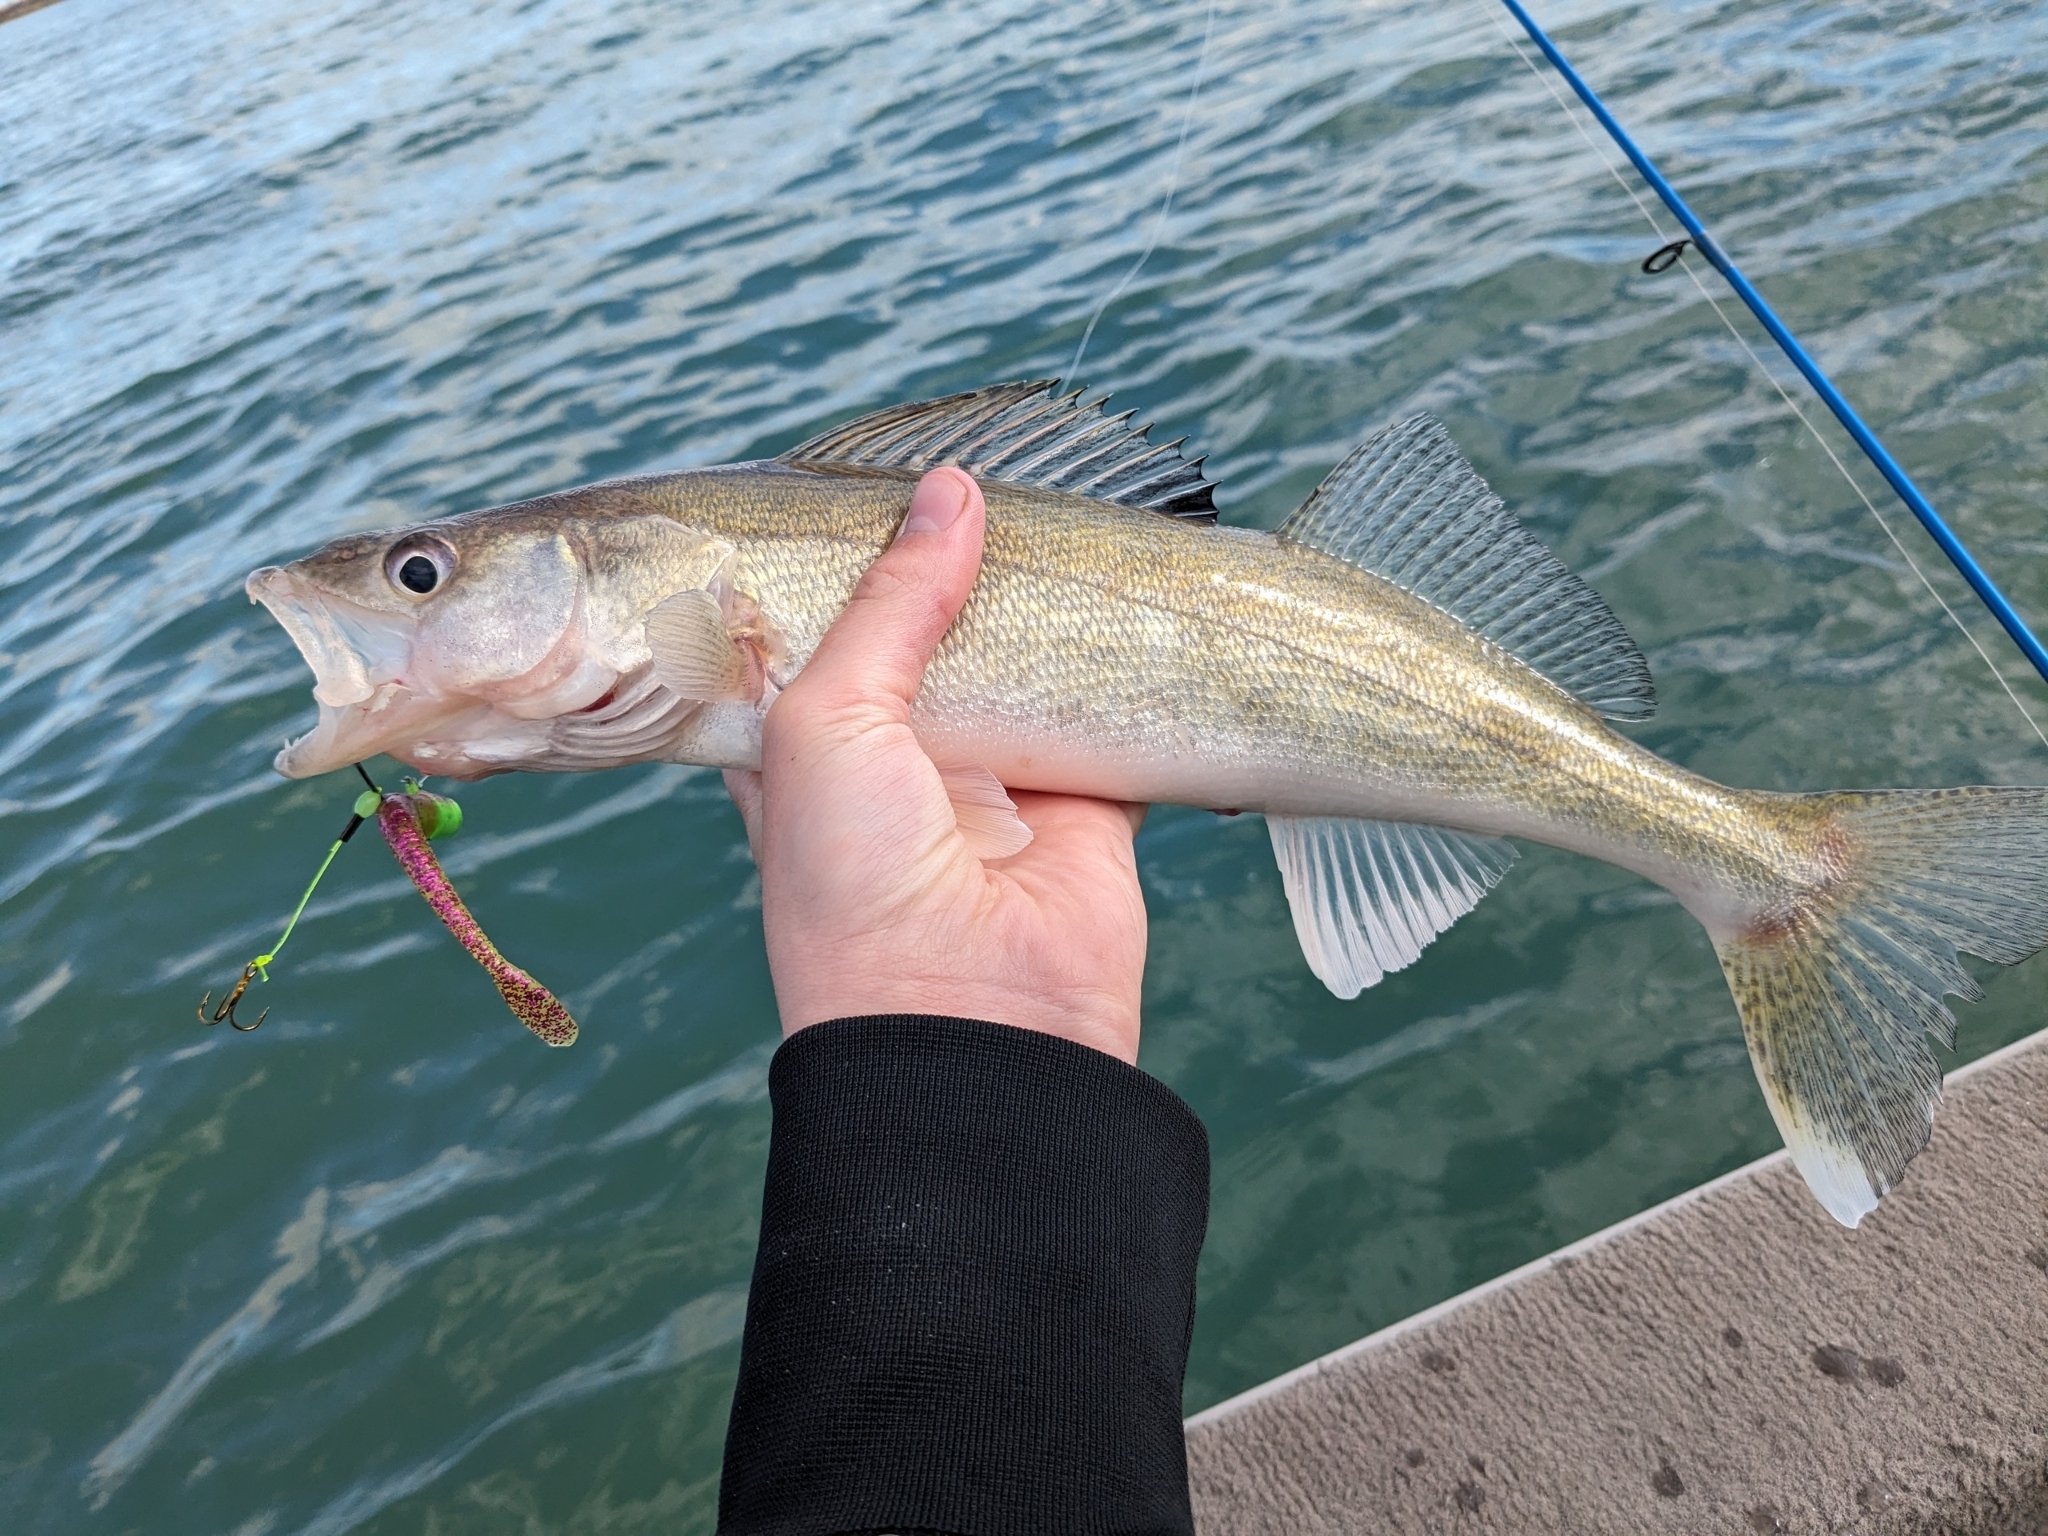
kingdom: Animalia
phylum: Chordata
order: Perciformes
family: Percidae
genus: Sander
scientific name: Sander vitreus
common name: Walleye
